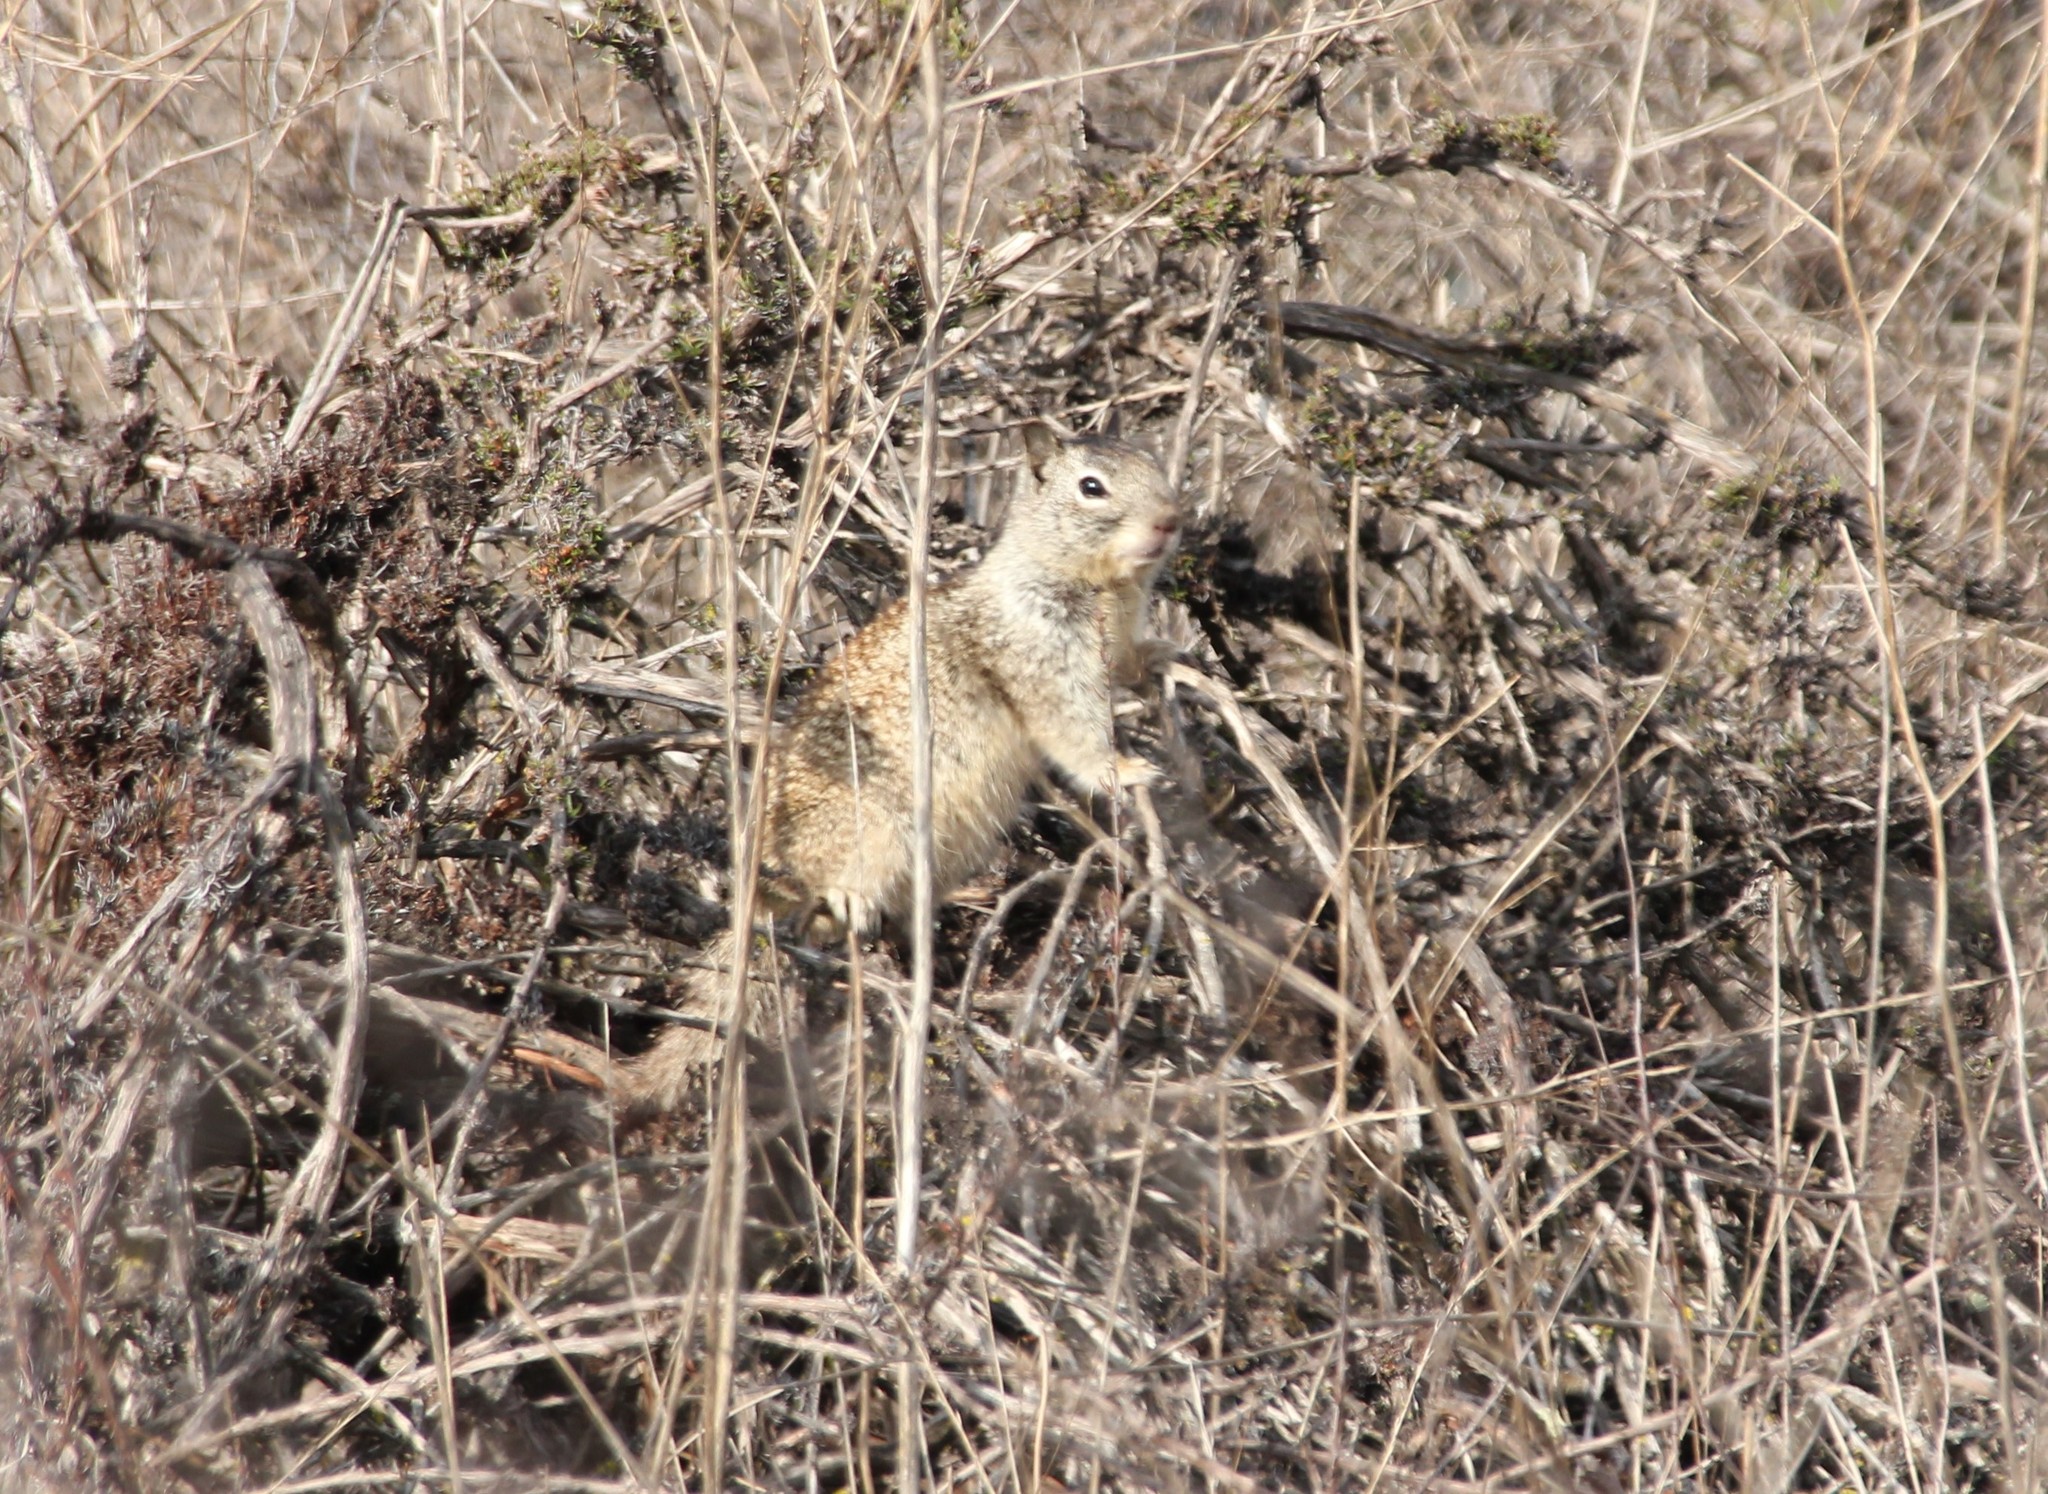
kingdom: Animalia
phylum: Chordata
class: Mammalia
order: Rodentia
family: Sciuridae
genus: Otospermophilus
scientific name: Otospermophilus beecheyi
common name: California ground squirrel
